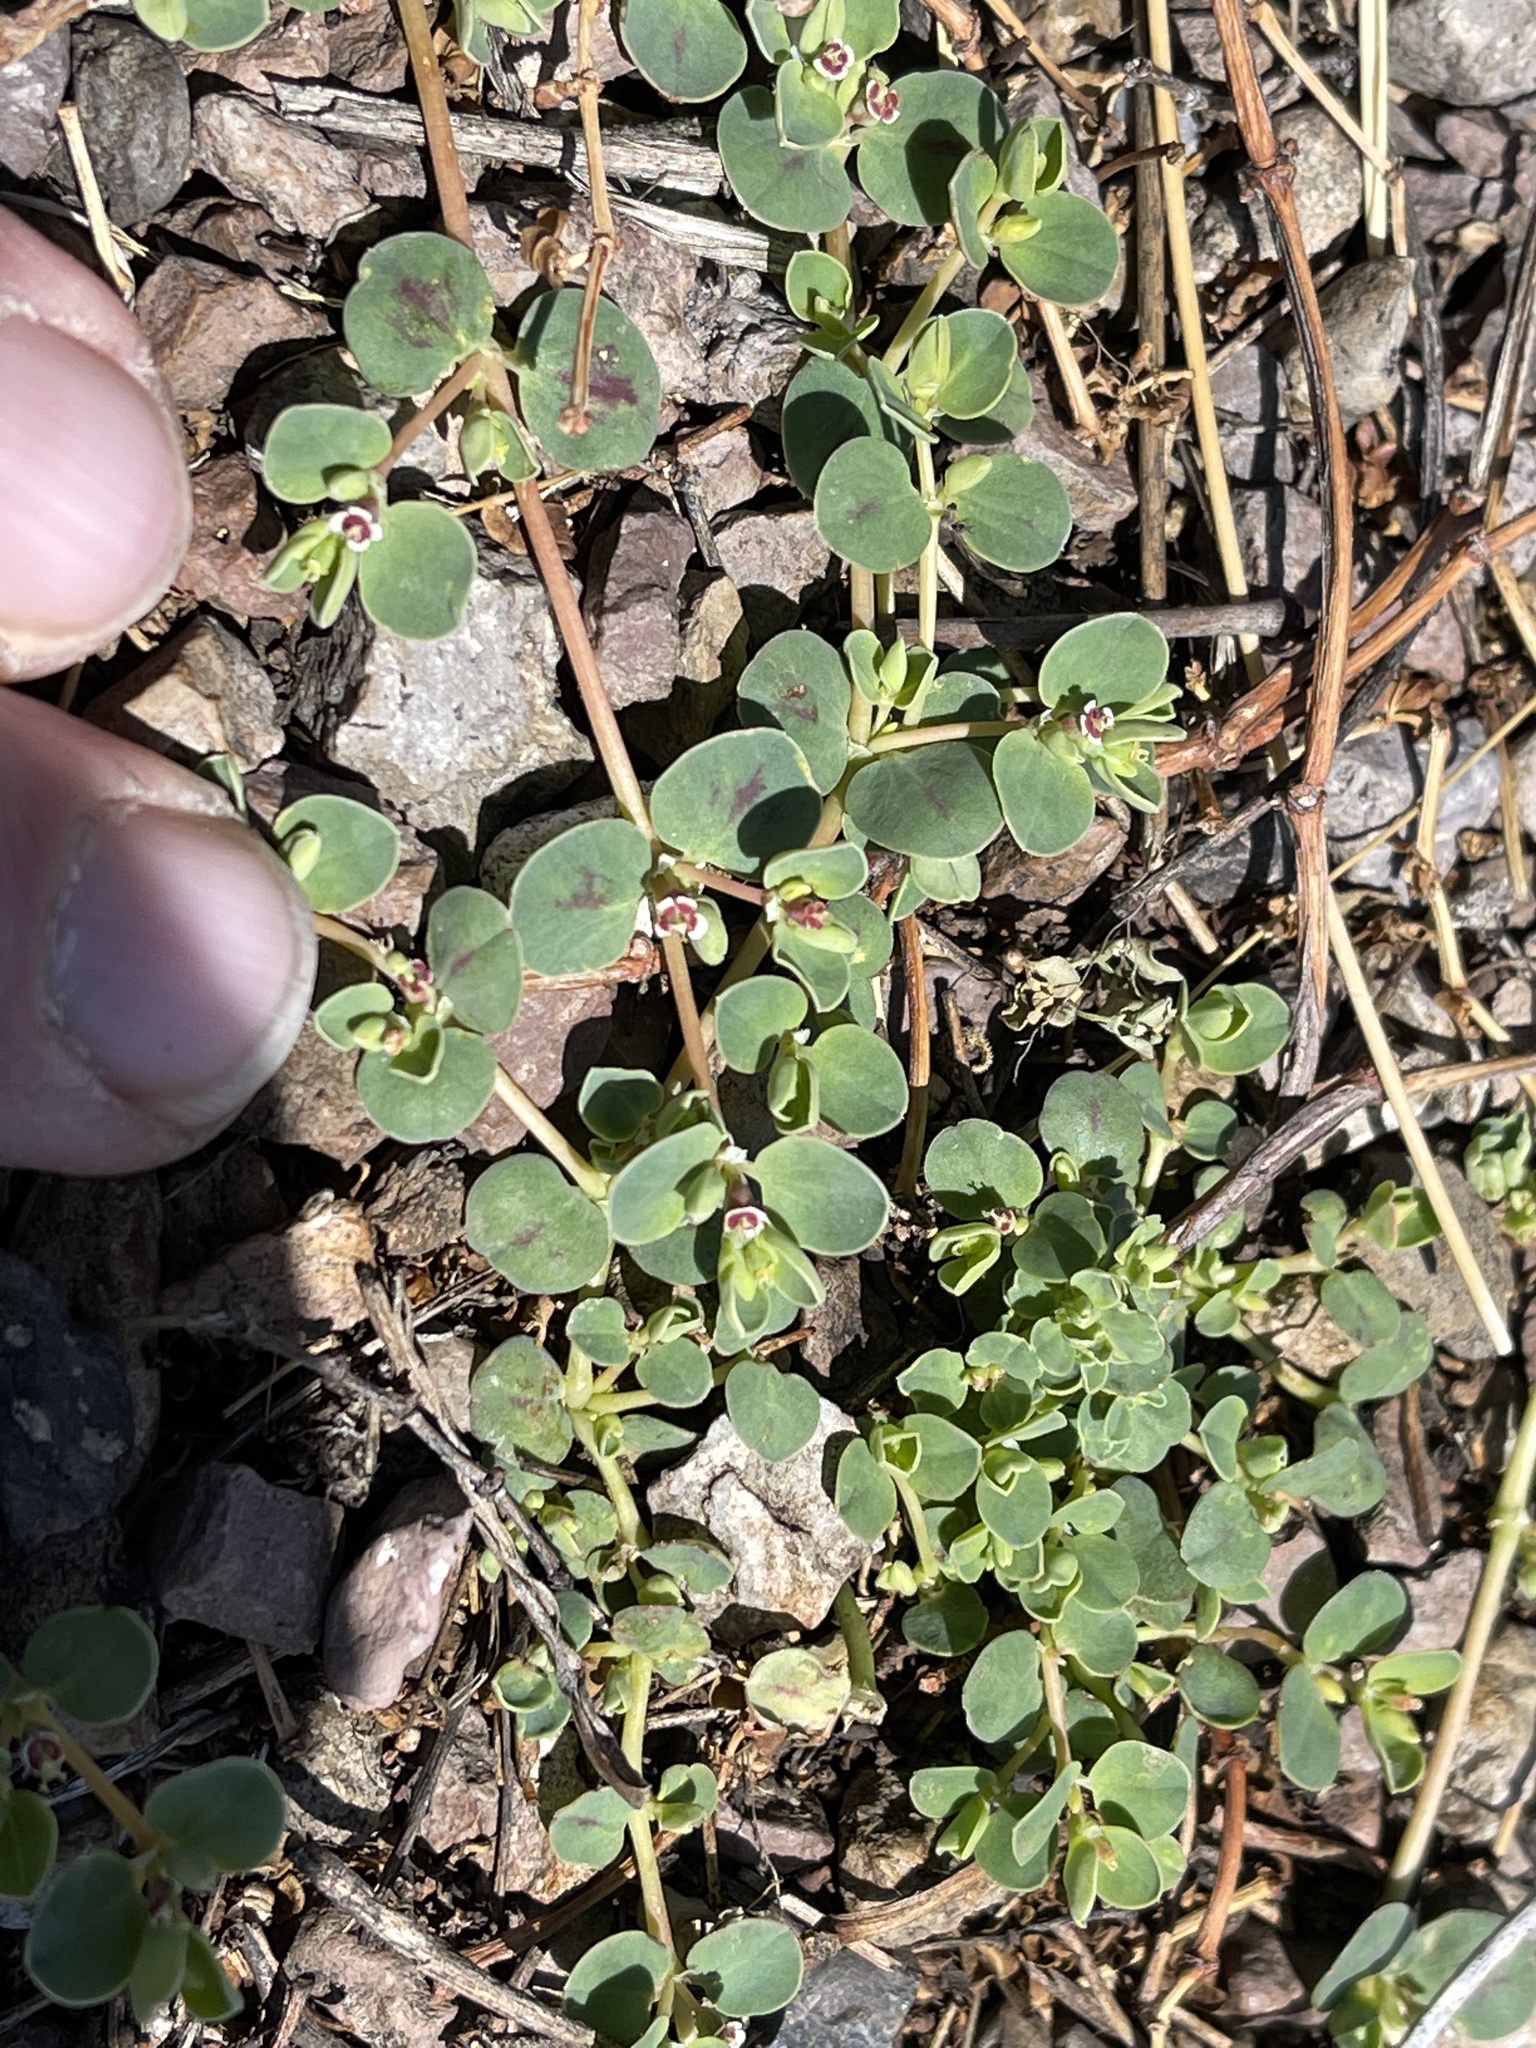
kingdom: Plantae
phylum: Tracheophyta
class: Magnoliopsida
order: Malpighiales
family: Euphorbiaceae
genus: Euphorbia
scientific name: Euphorbia albomarginata
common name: Whitemargin sandmat
